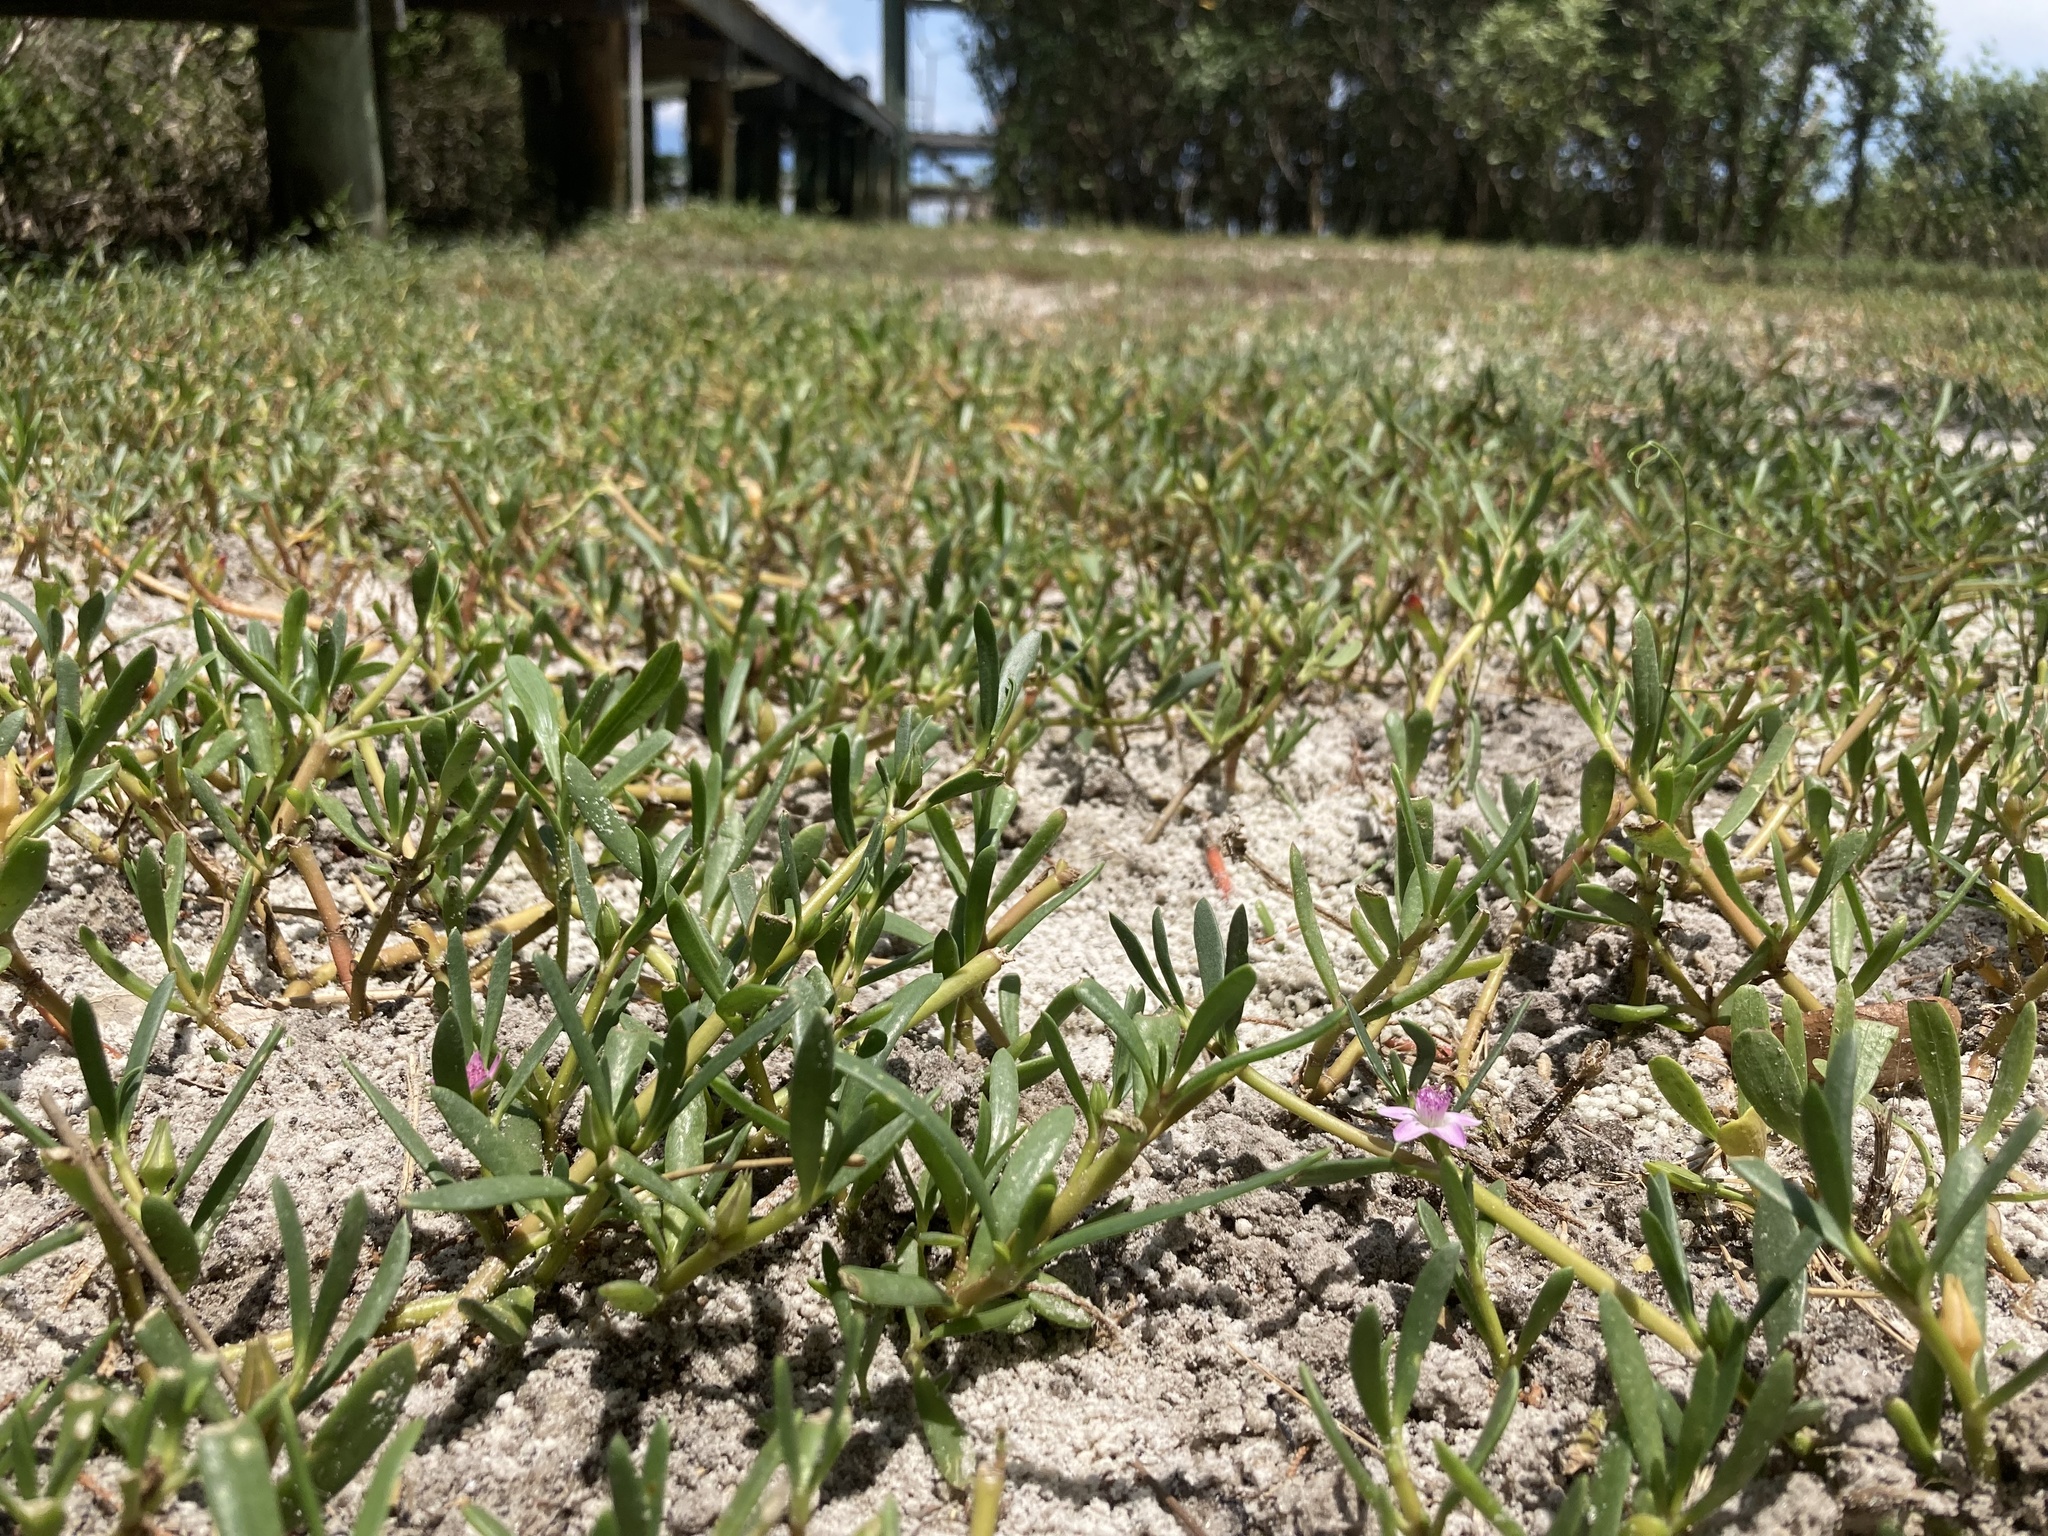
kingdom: Plantae
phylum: Tracheophyta
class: Magnoliopsida
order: Caryophyllales
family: Aizoaceae
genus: Sesuvium
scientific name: Sesuvium portulacastrum
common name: Sea-purslane
